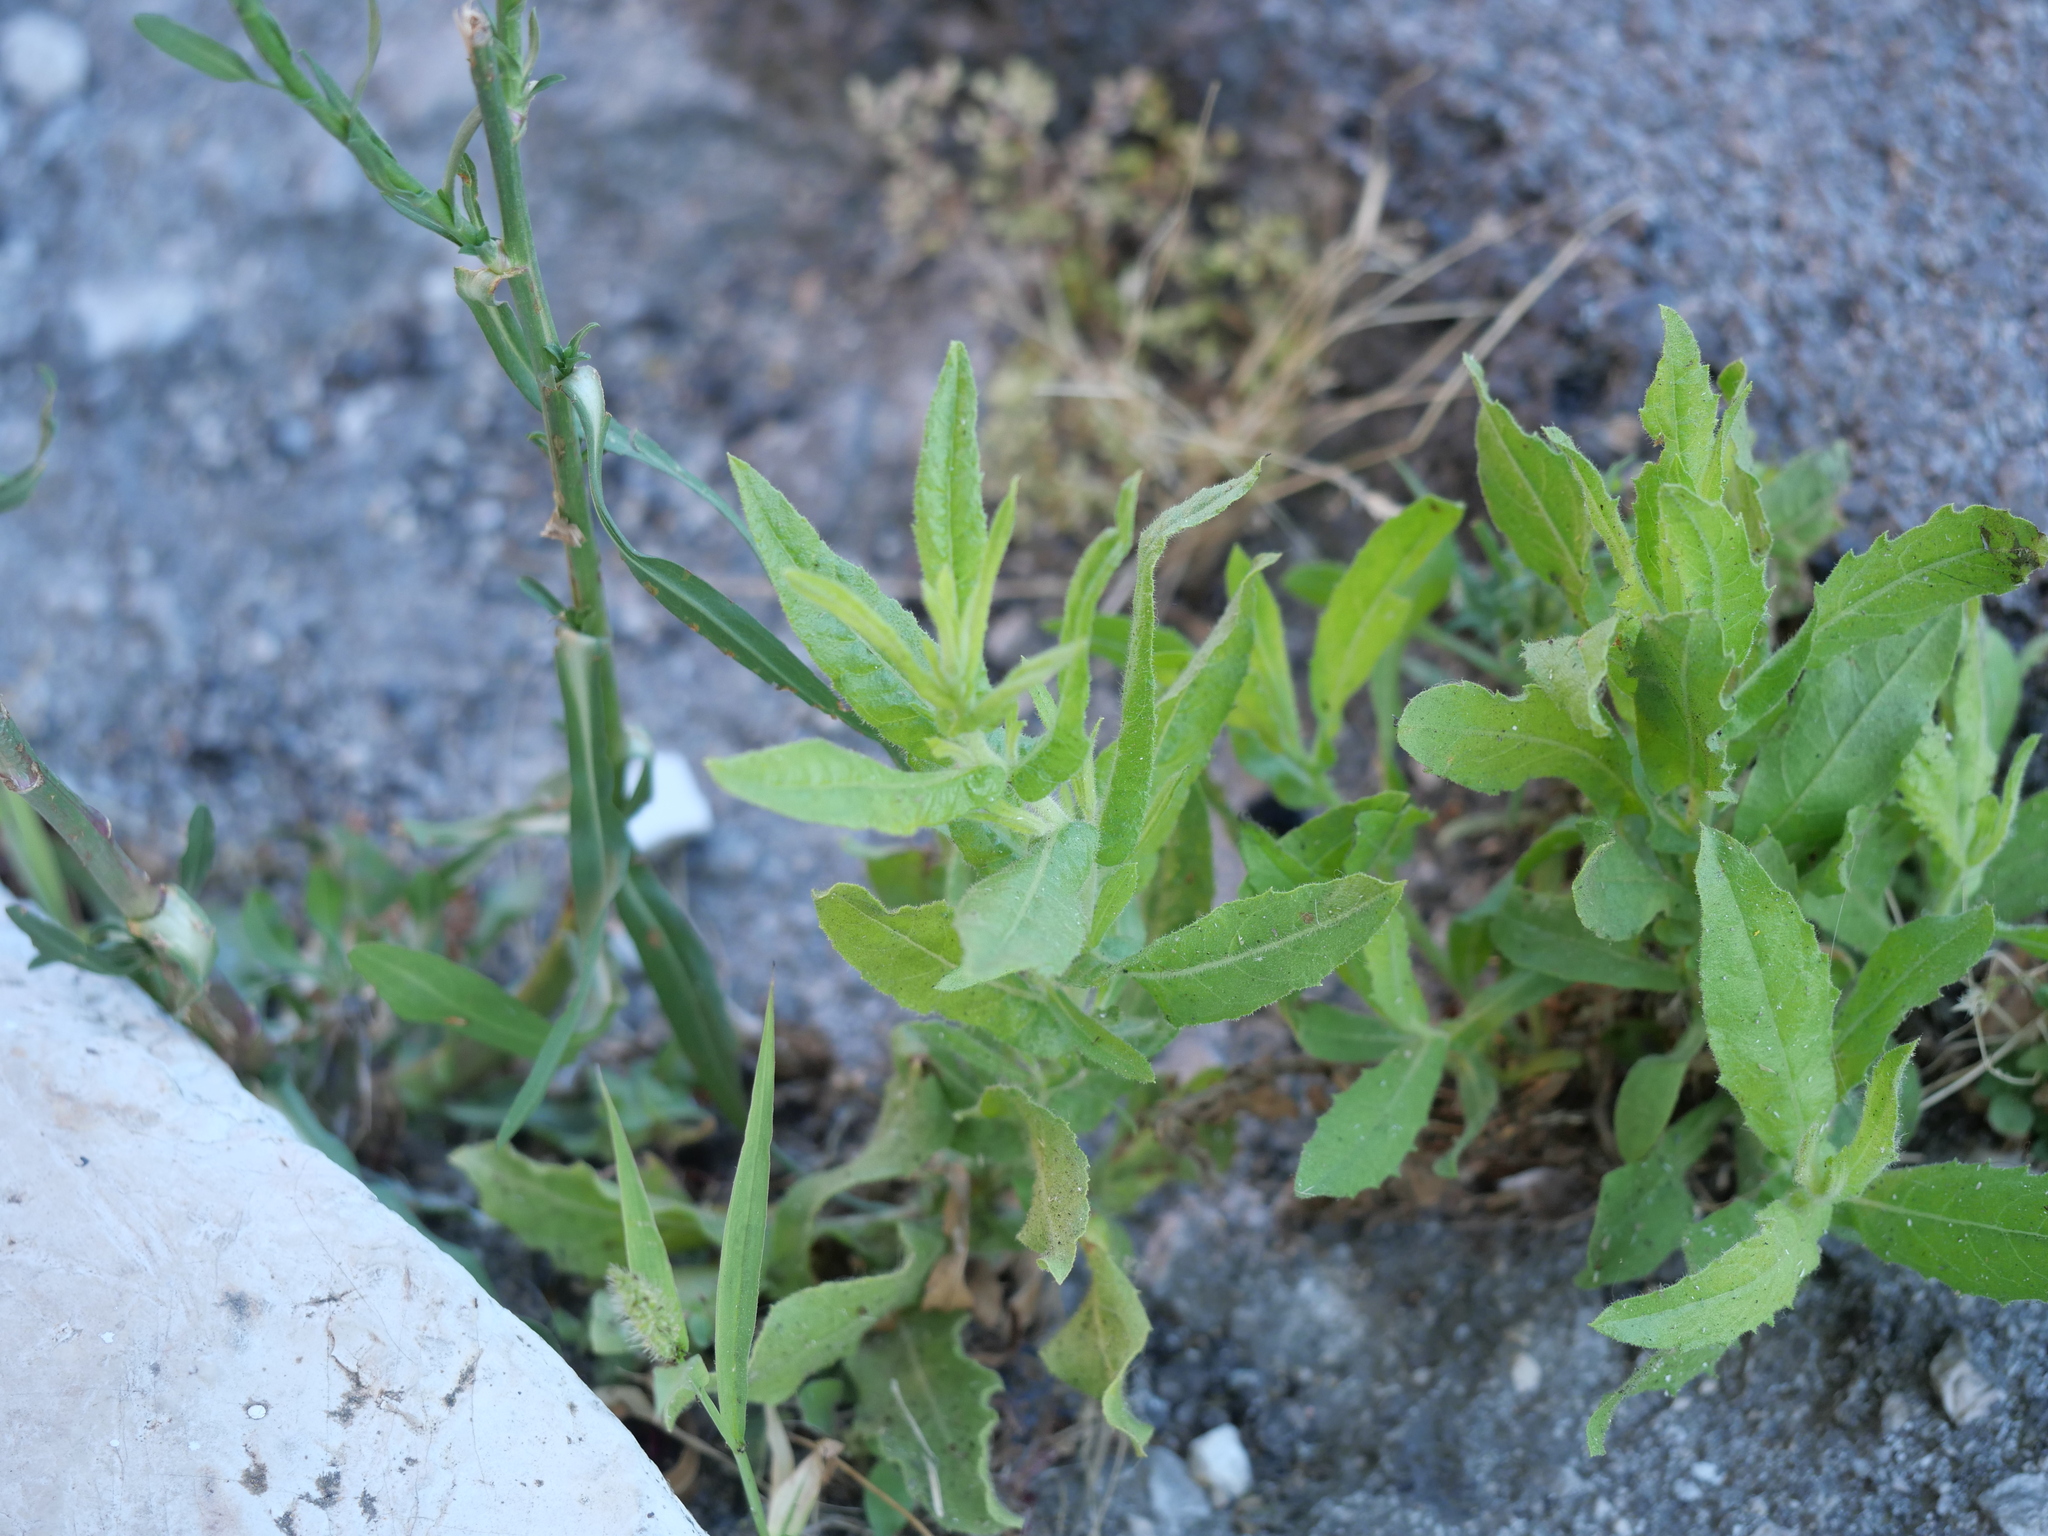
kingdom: Plantae
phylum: Tracheophyta
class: Magnoliopsida
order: Asterales
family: Asteraceae
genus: Dittrichia
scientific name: Dittrichia viscosa
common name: Woody fleabane
